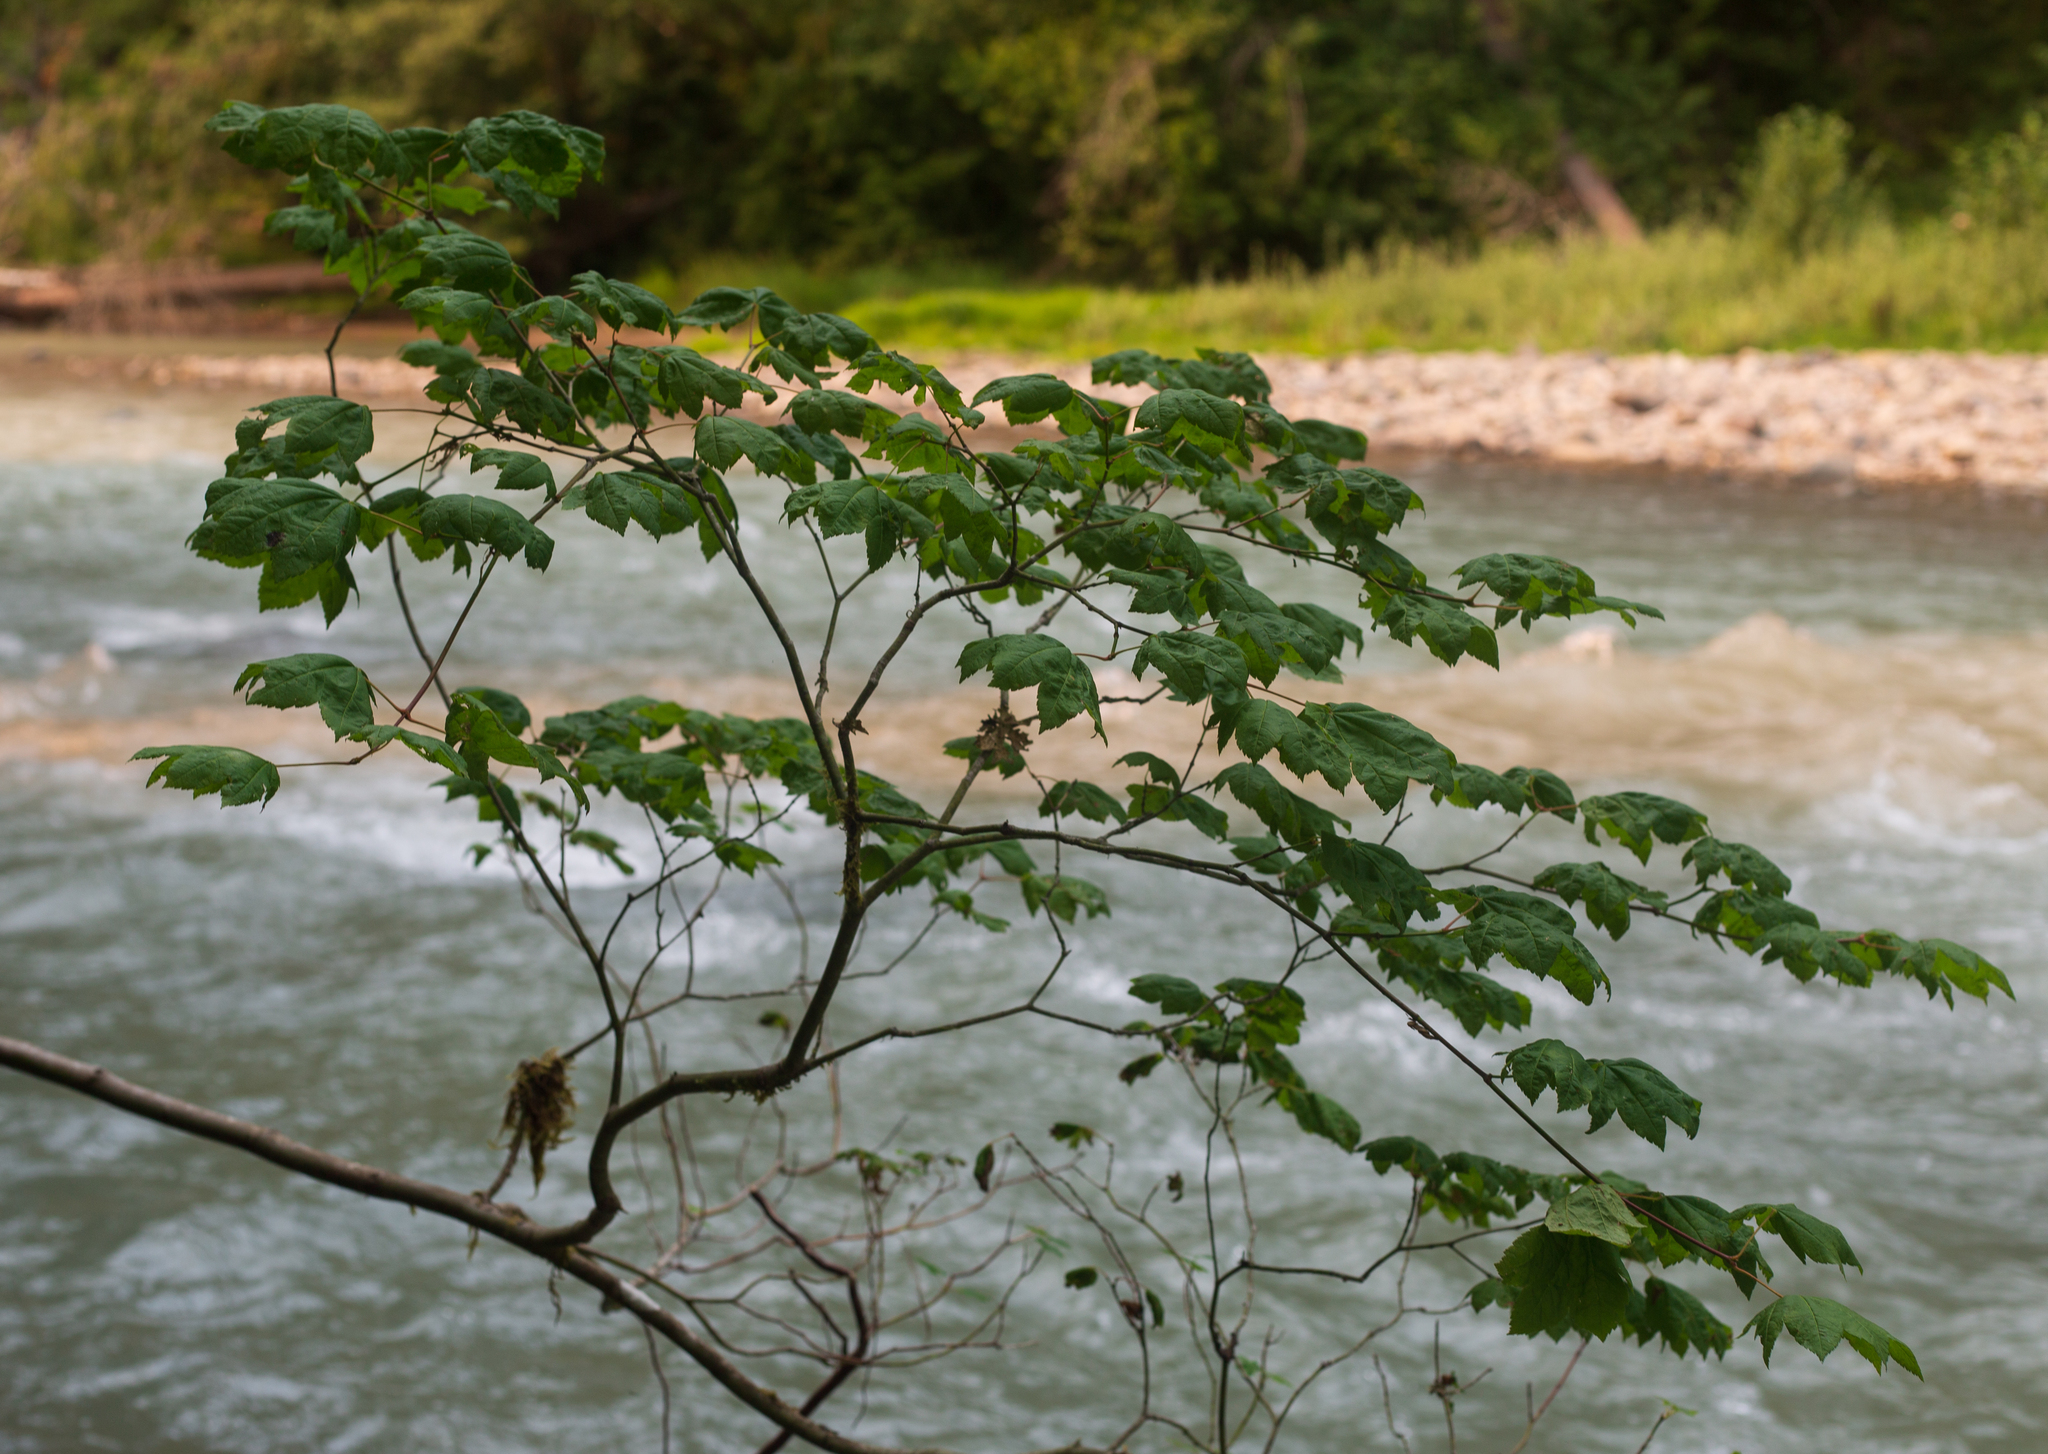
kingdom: Plantae
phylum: Tracheophyta
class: Magnoliopsida
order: Sapindales
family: Sapindaceae
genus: Acer
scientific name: Acer circinatum
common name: Vine maple
